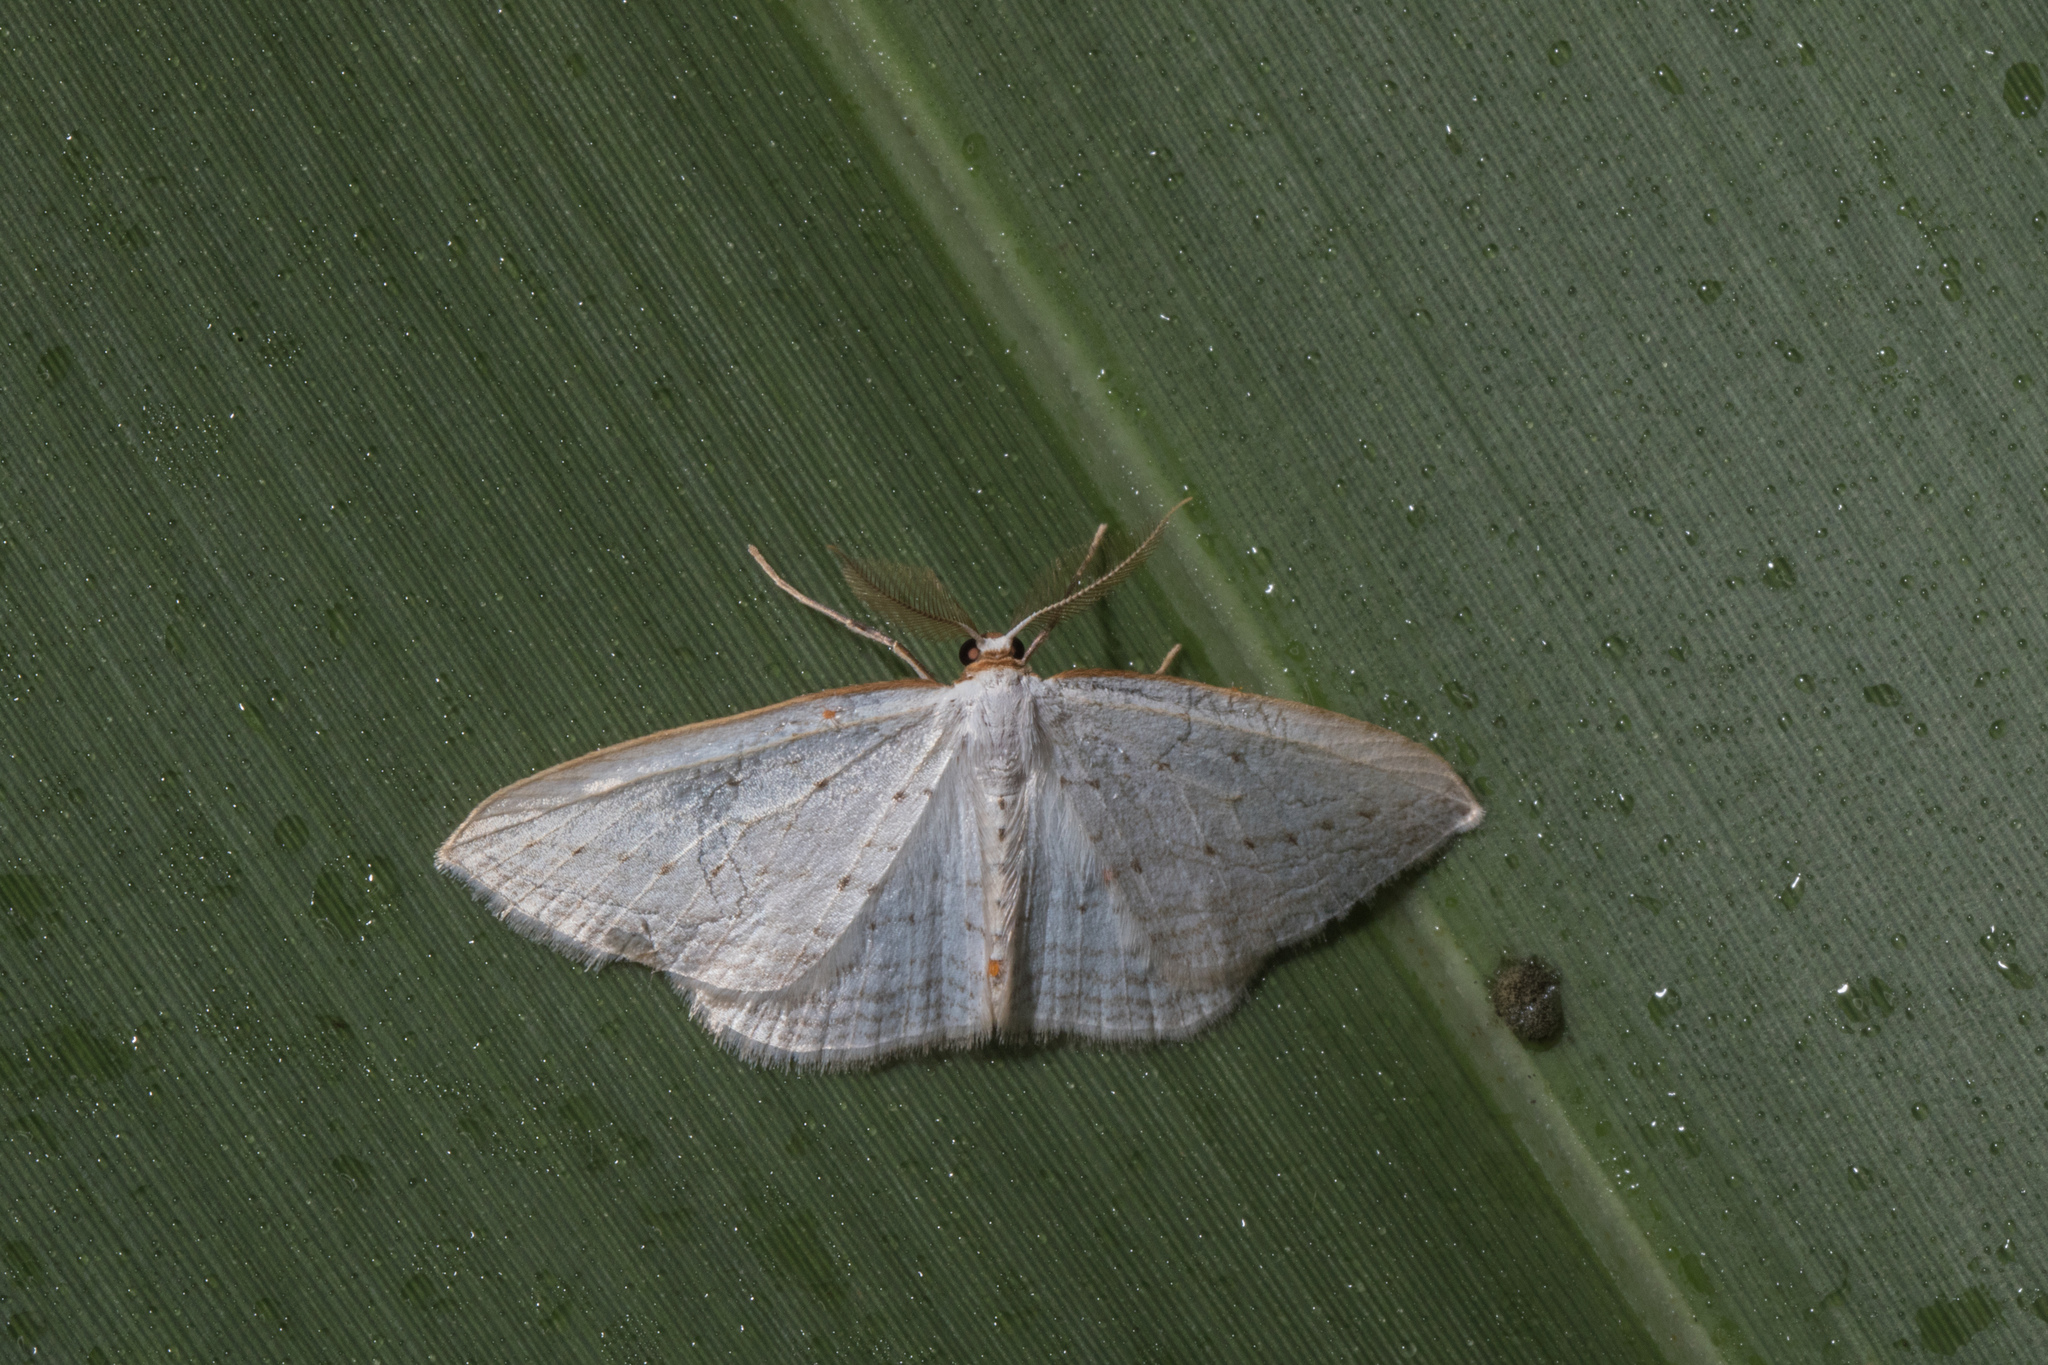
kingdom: Animalia
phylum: Arthropoda
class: Insecta
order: Lepidoptera
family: Geometridae
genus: Orthoclydon
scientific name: Orthoclydon praefectata
